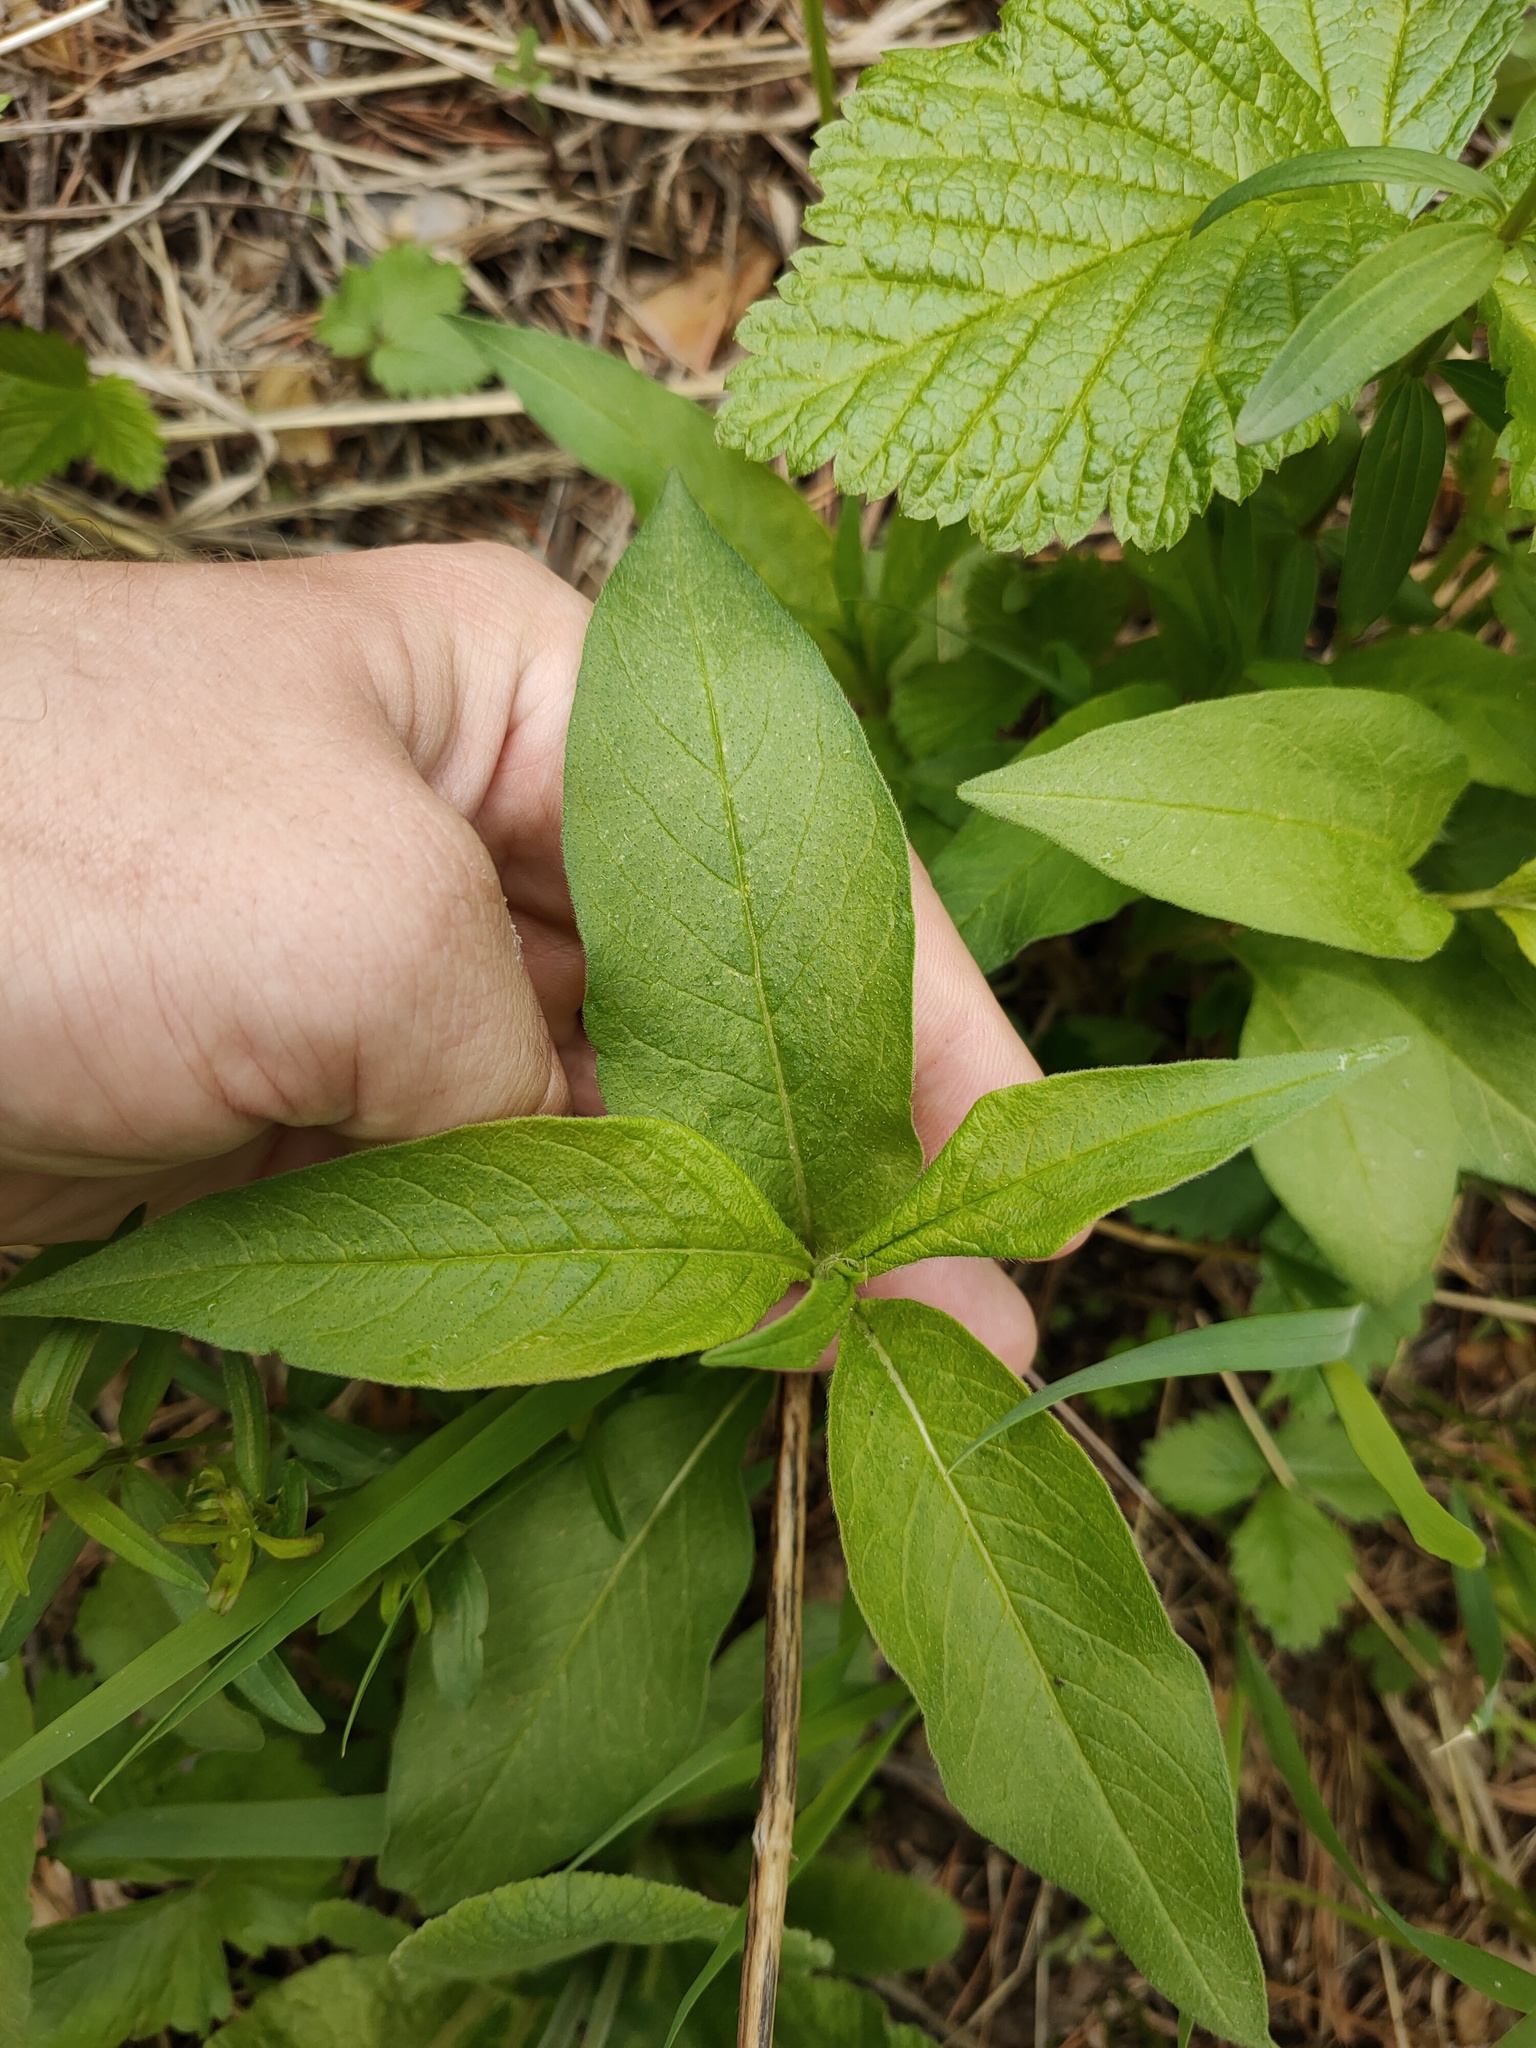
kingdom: Plantae
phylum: Tracheophyta
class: Magnoliopsida
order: Caryophyllales
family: Polygonaceae
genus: Koenigia
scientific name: Koenigia alpina
